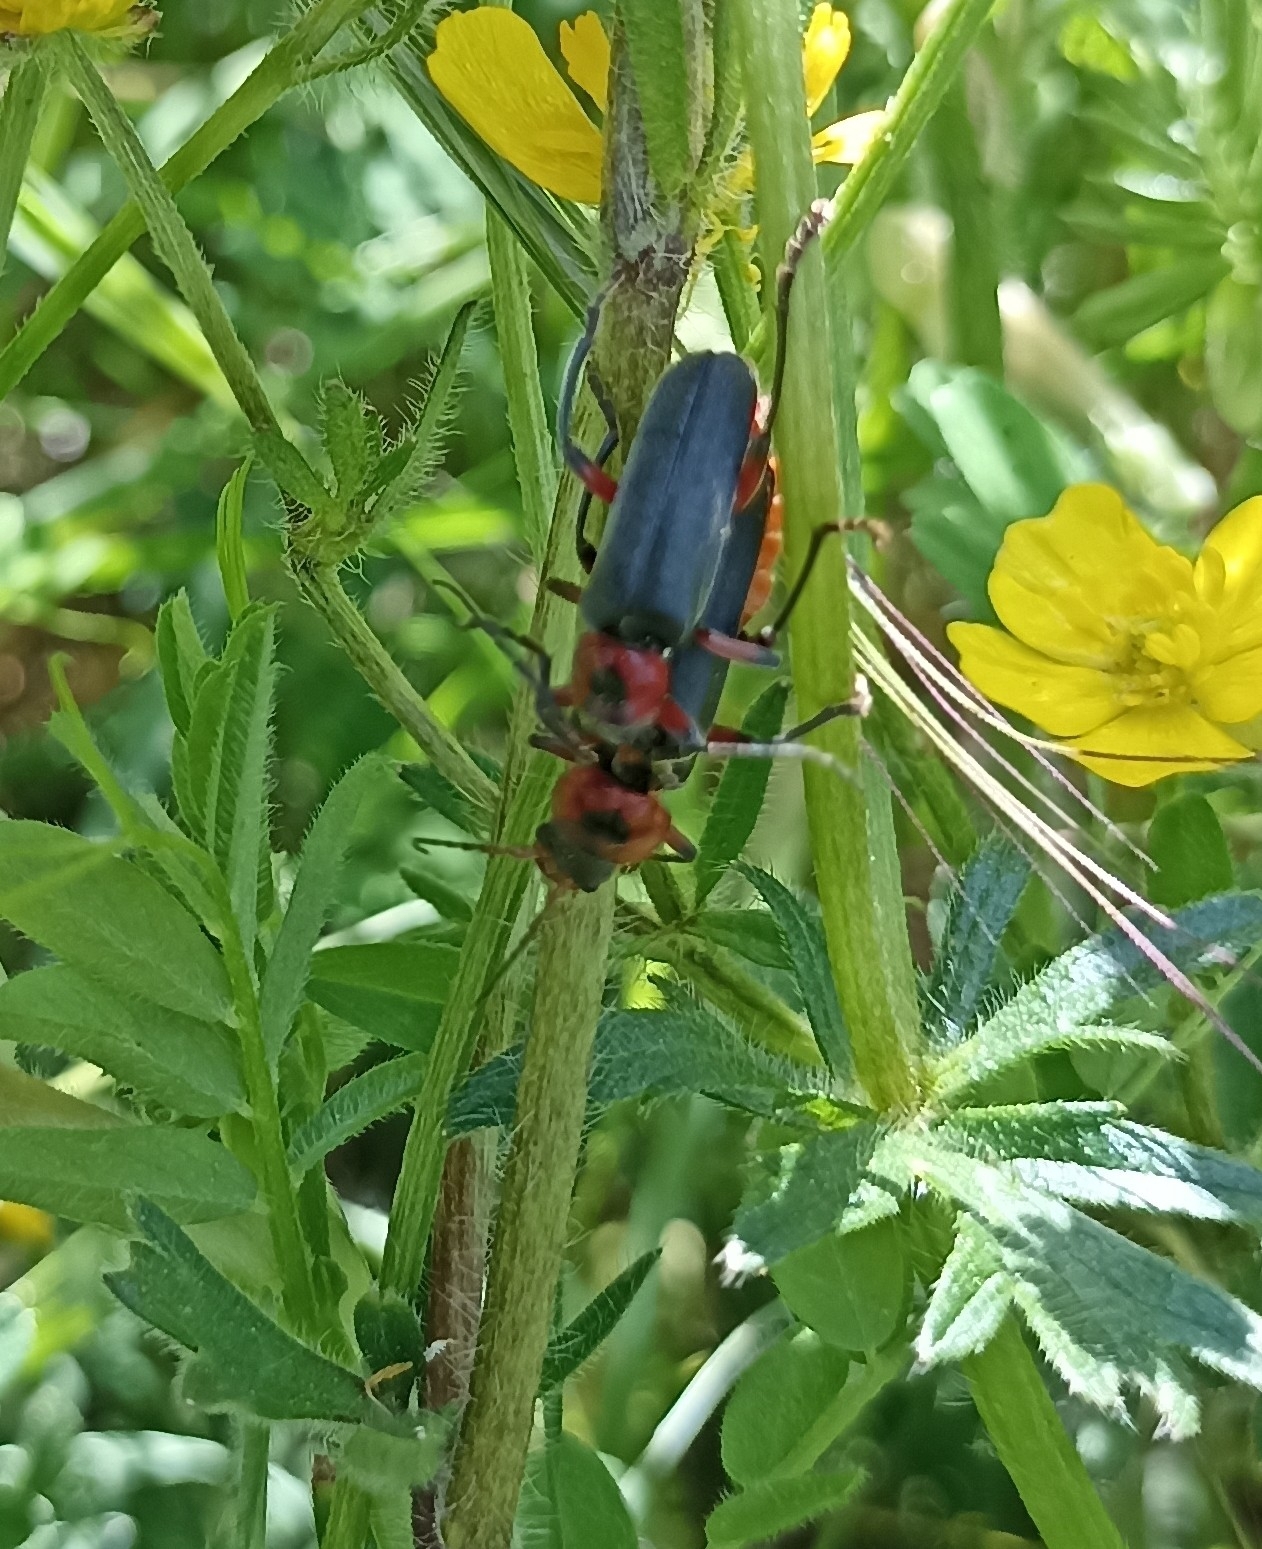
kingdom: Animalia
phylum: Arthropoda
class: Insecta
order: Coleoptera
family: Cantharidae
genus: Cantharis
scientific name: Cantharis rustica
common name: Soldier beetle
